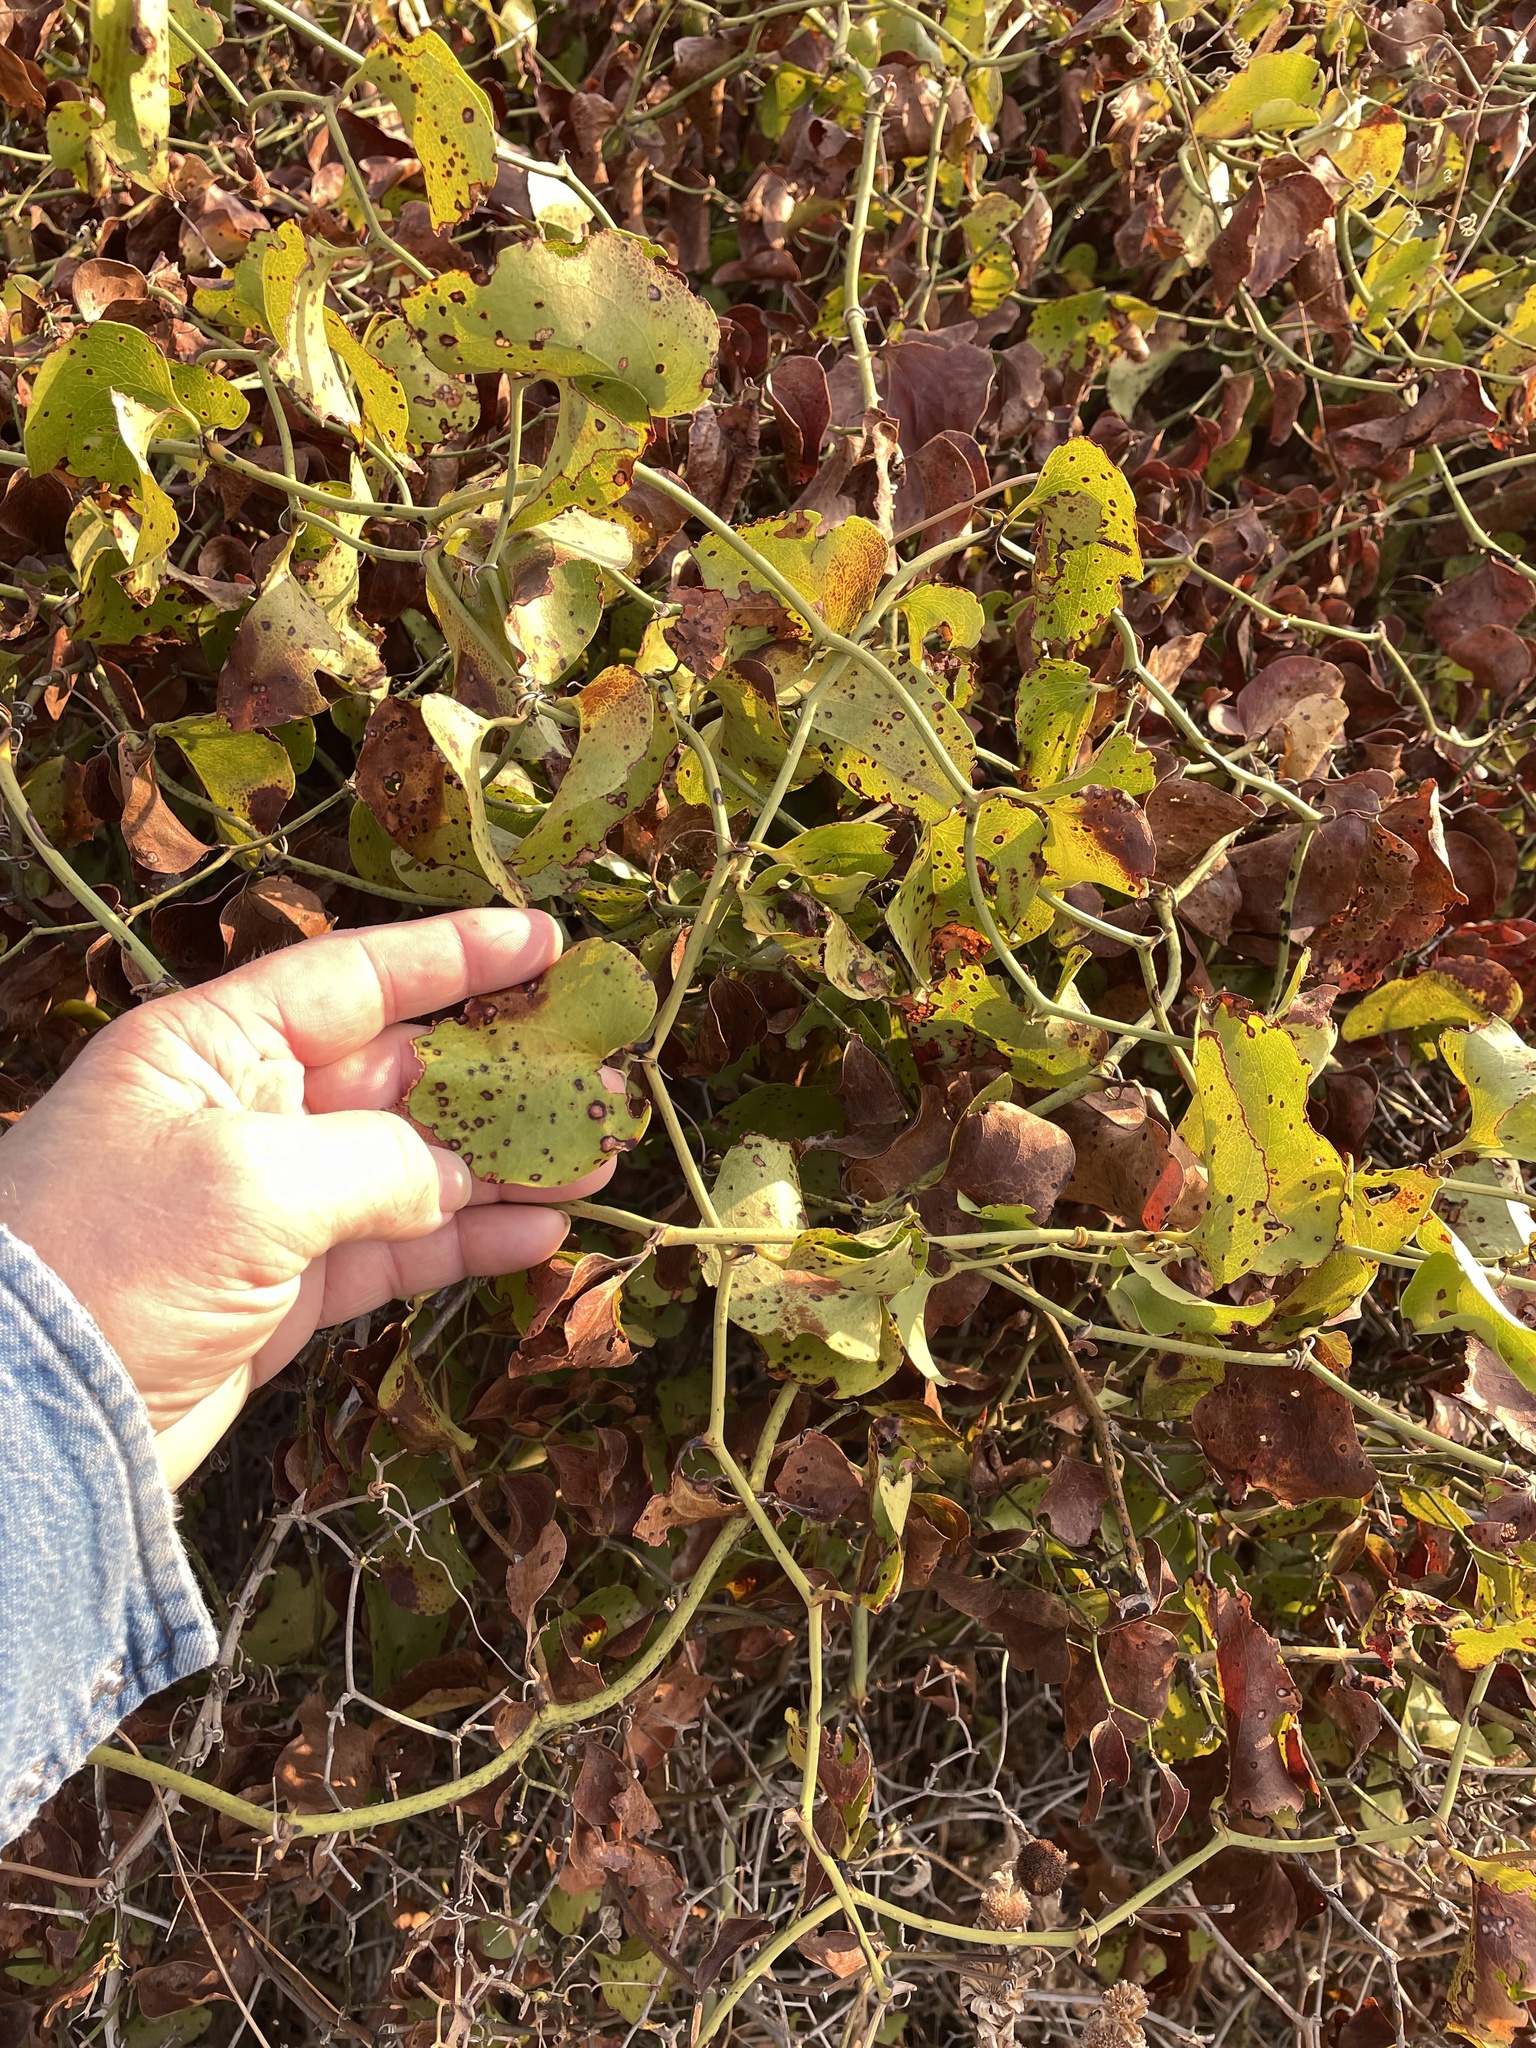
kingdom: Plantae
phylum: Tracheophyta
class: Liliopsida
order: Liliales
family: Smilacaceae
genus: Smilax
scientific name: Smilax bona-nox
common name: Catbrier
